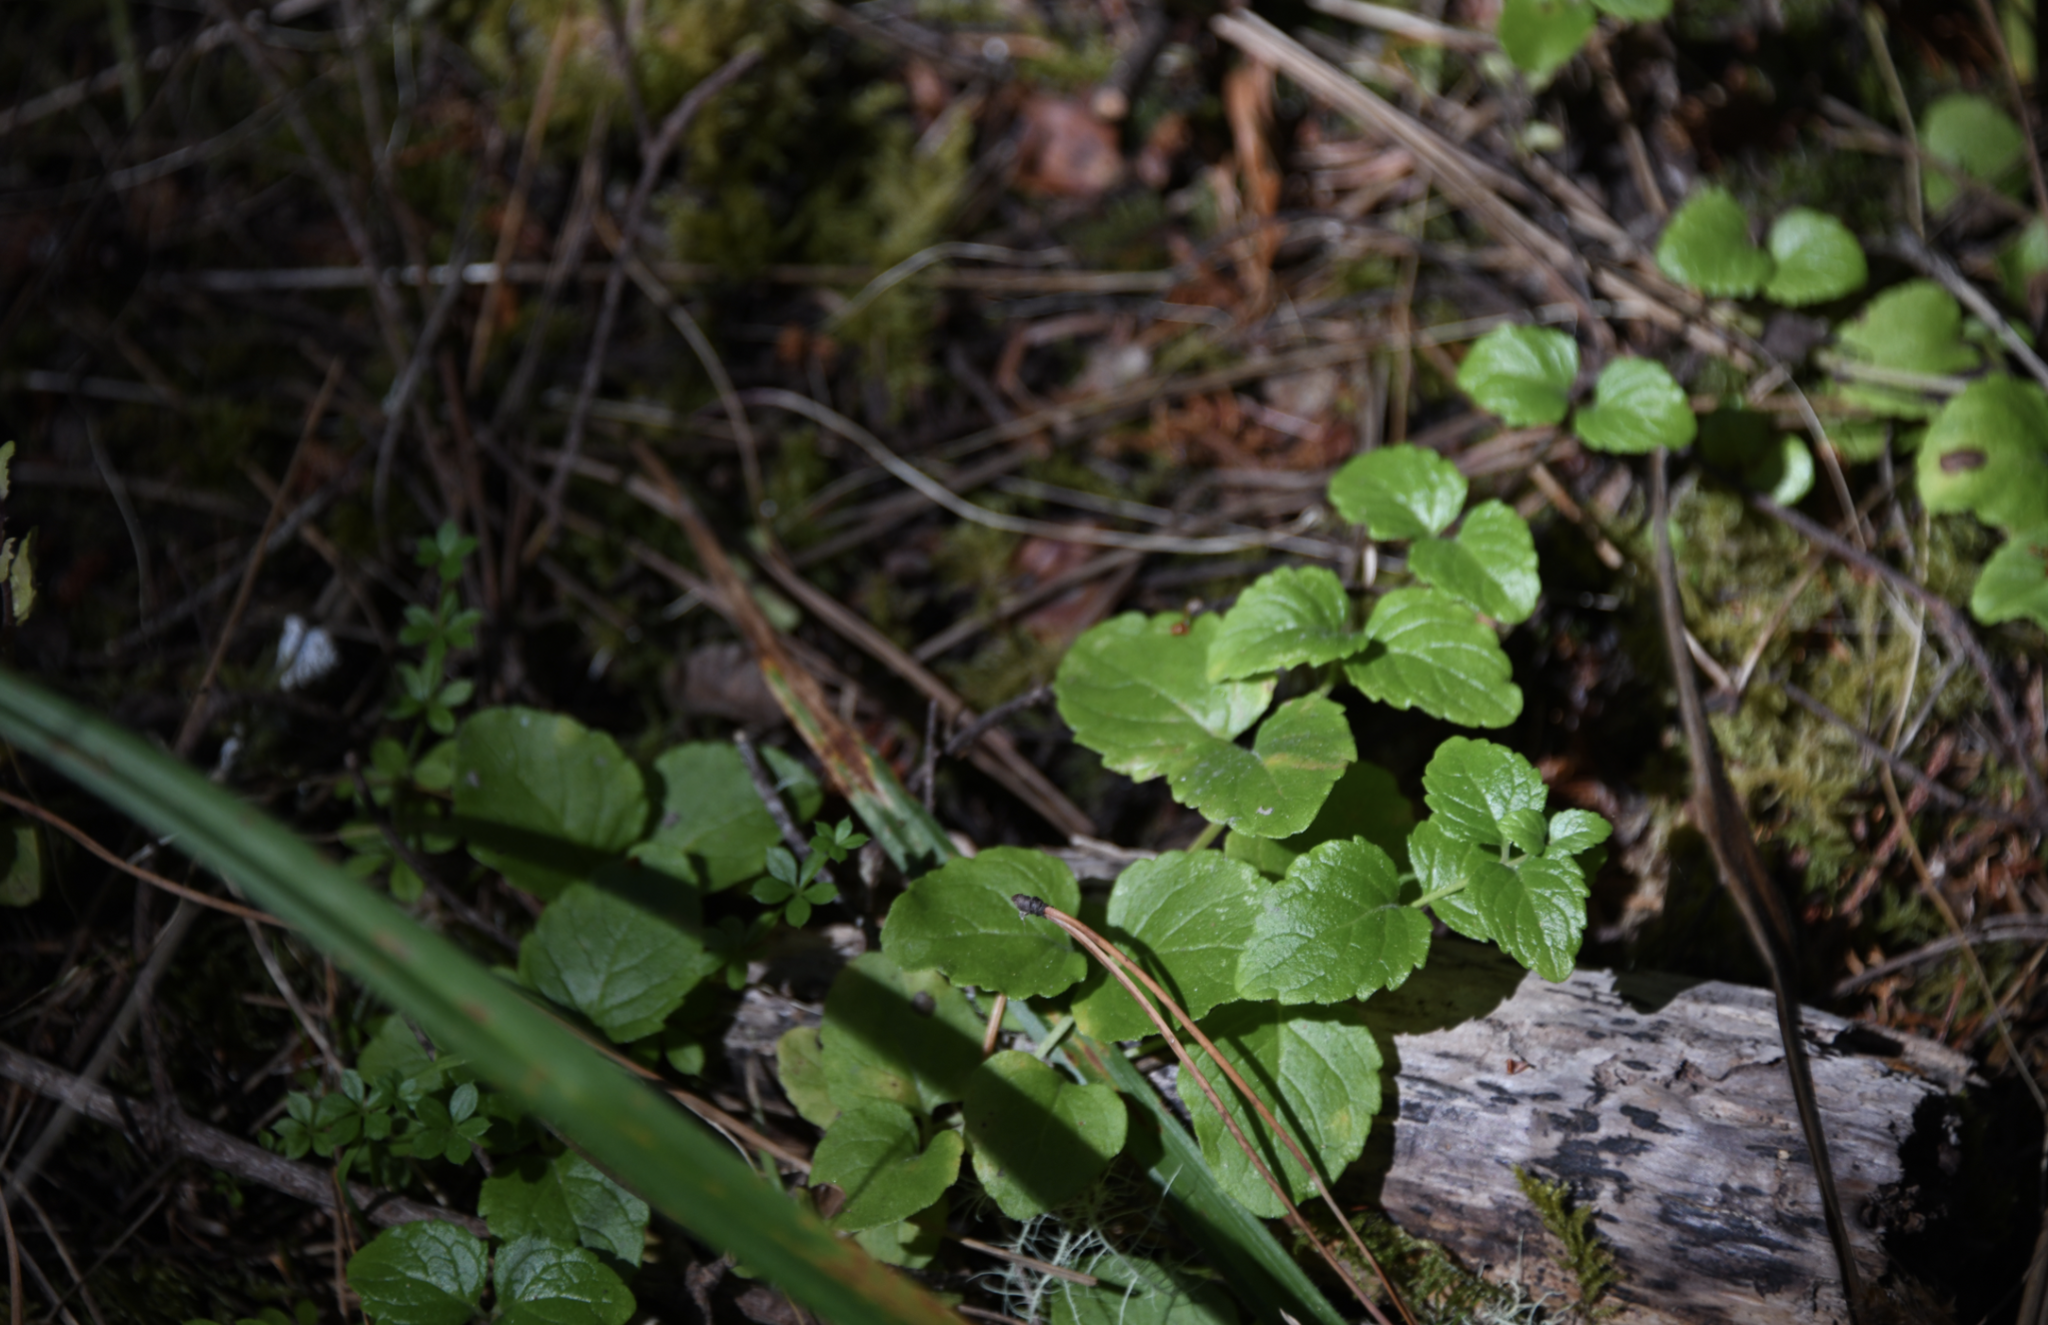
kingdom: Plantae
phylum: Tracheophyta
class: Magnoliopsida
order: Lamiales
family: Lamiaceae
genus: Micromeria
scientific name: Micromeria douglasii
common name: Yerba buena
